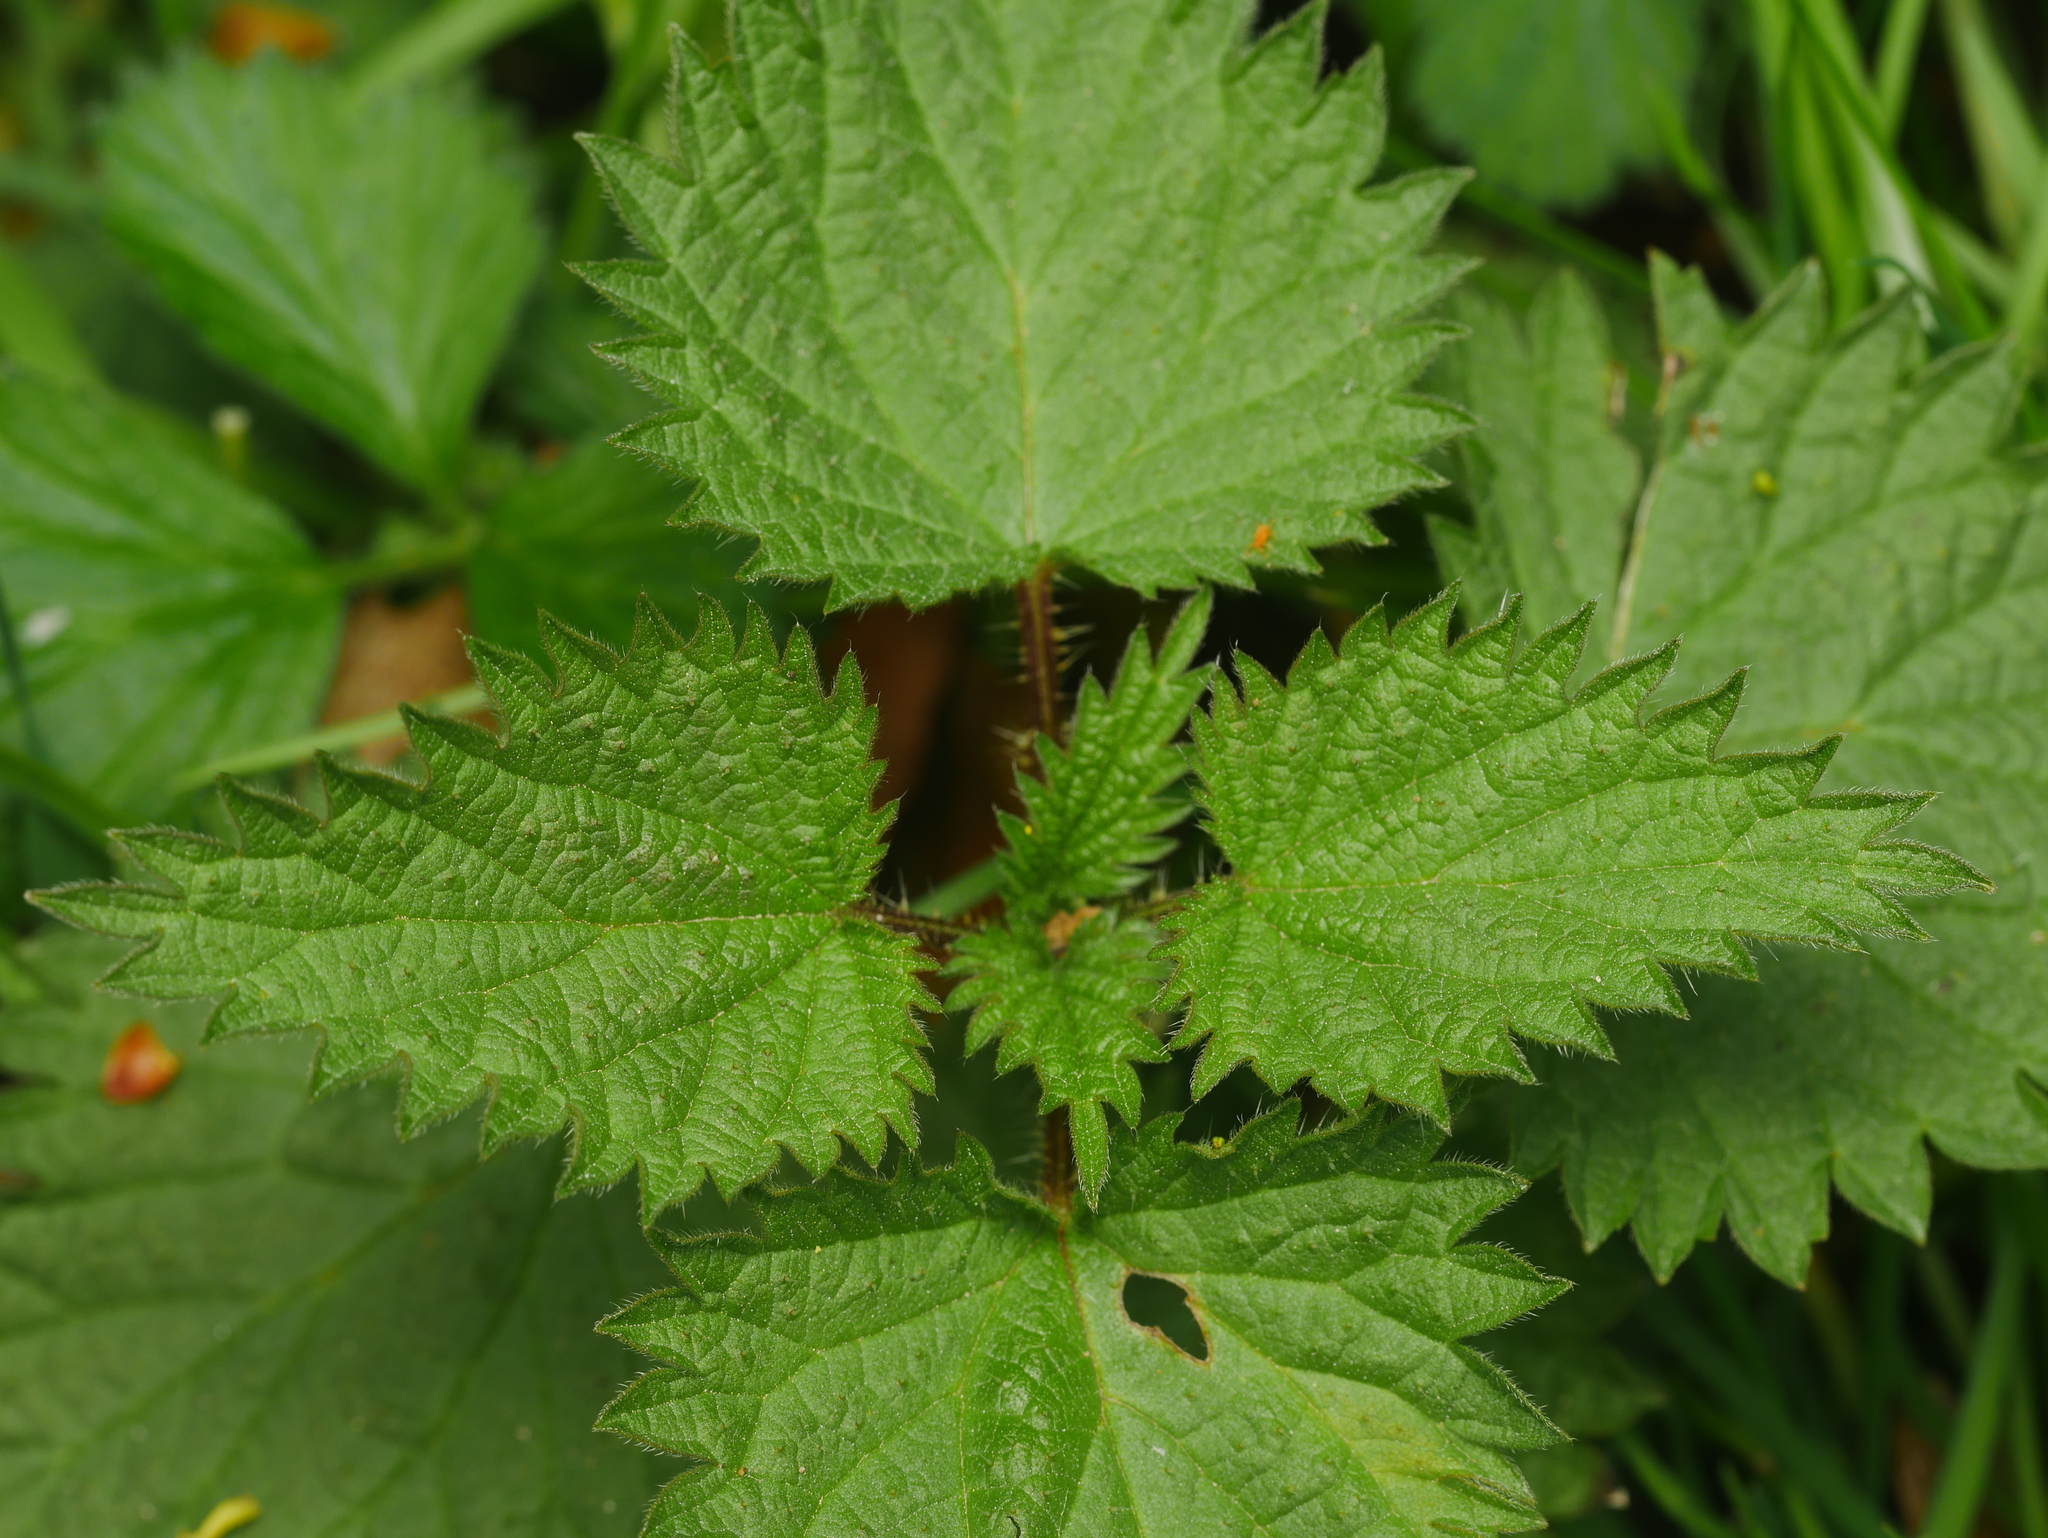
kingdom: Plantae
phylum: Tracheophyta
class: Magnoliopsida
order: Rosales
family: Urticaceae
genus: Urtica
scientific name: Urtica dioica
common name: Common nettle
